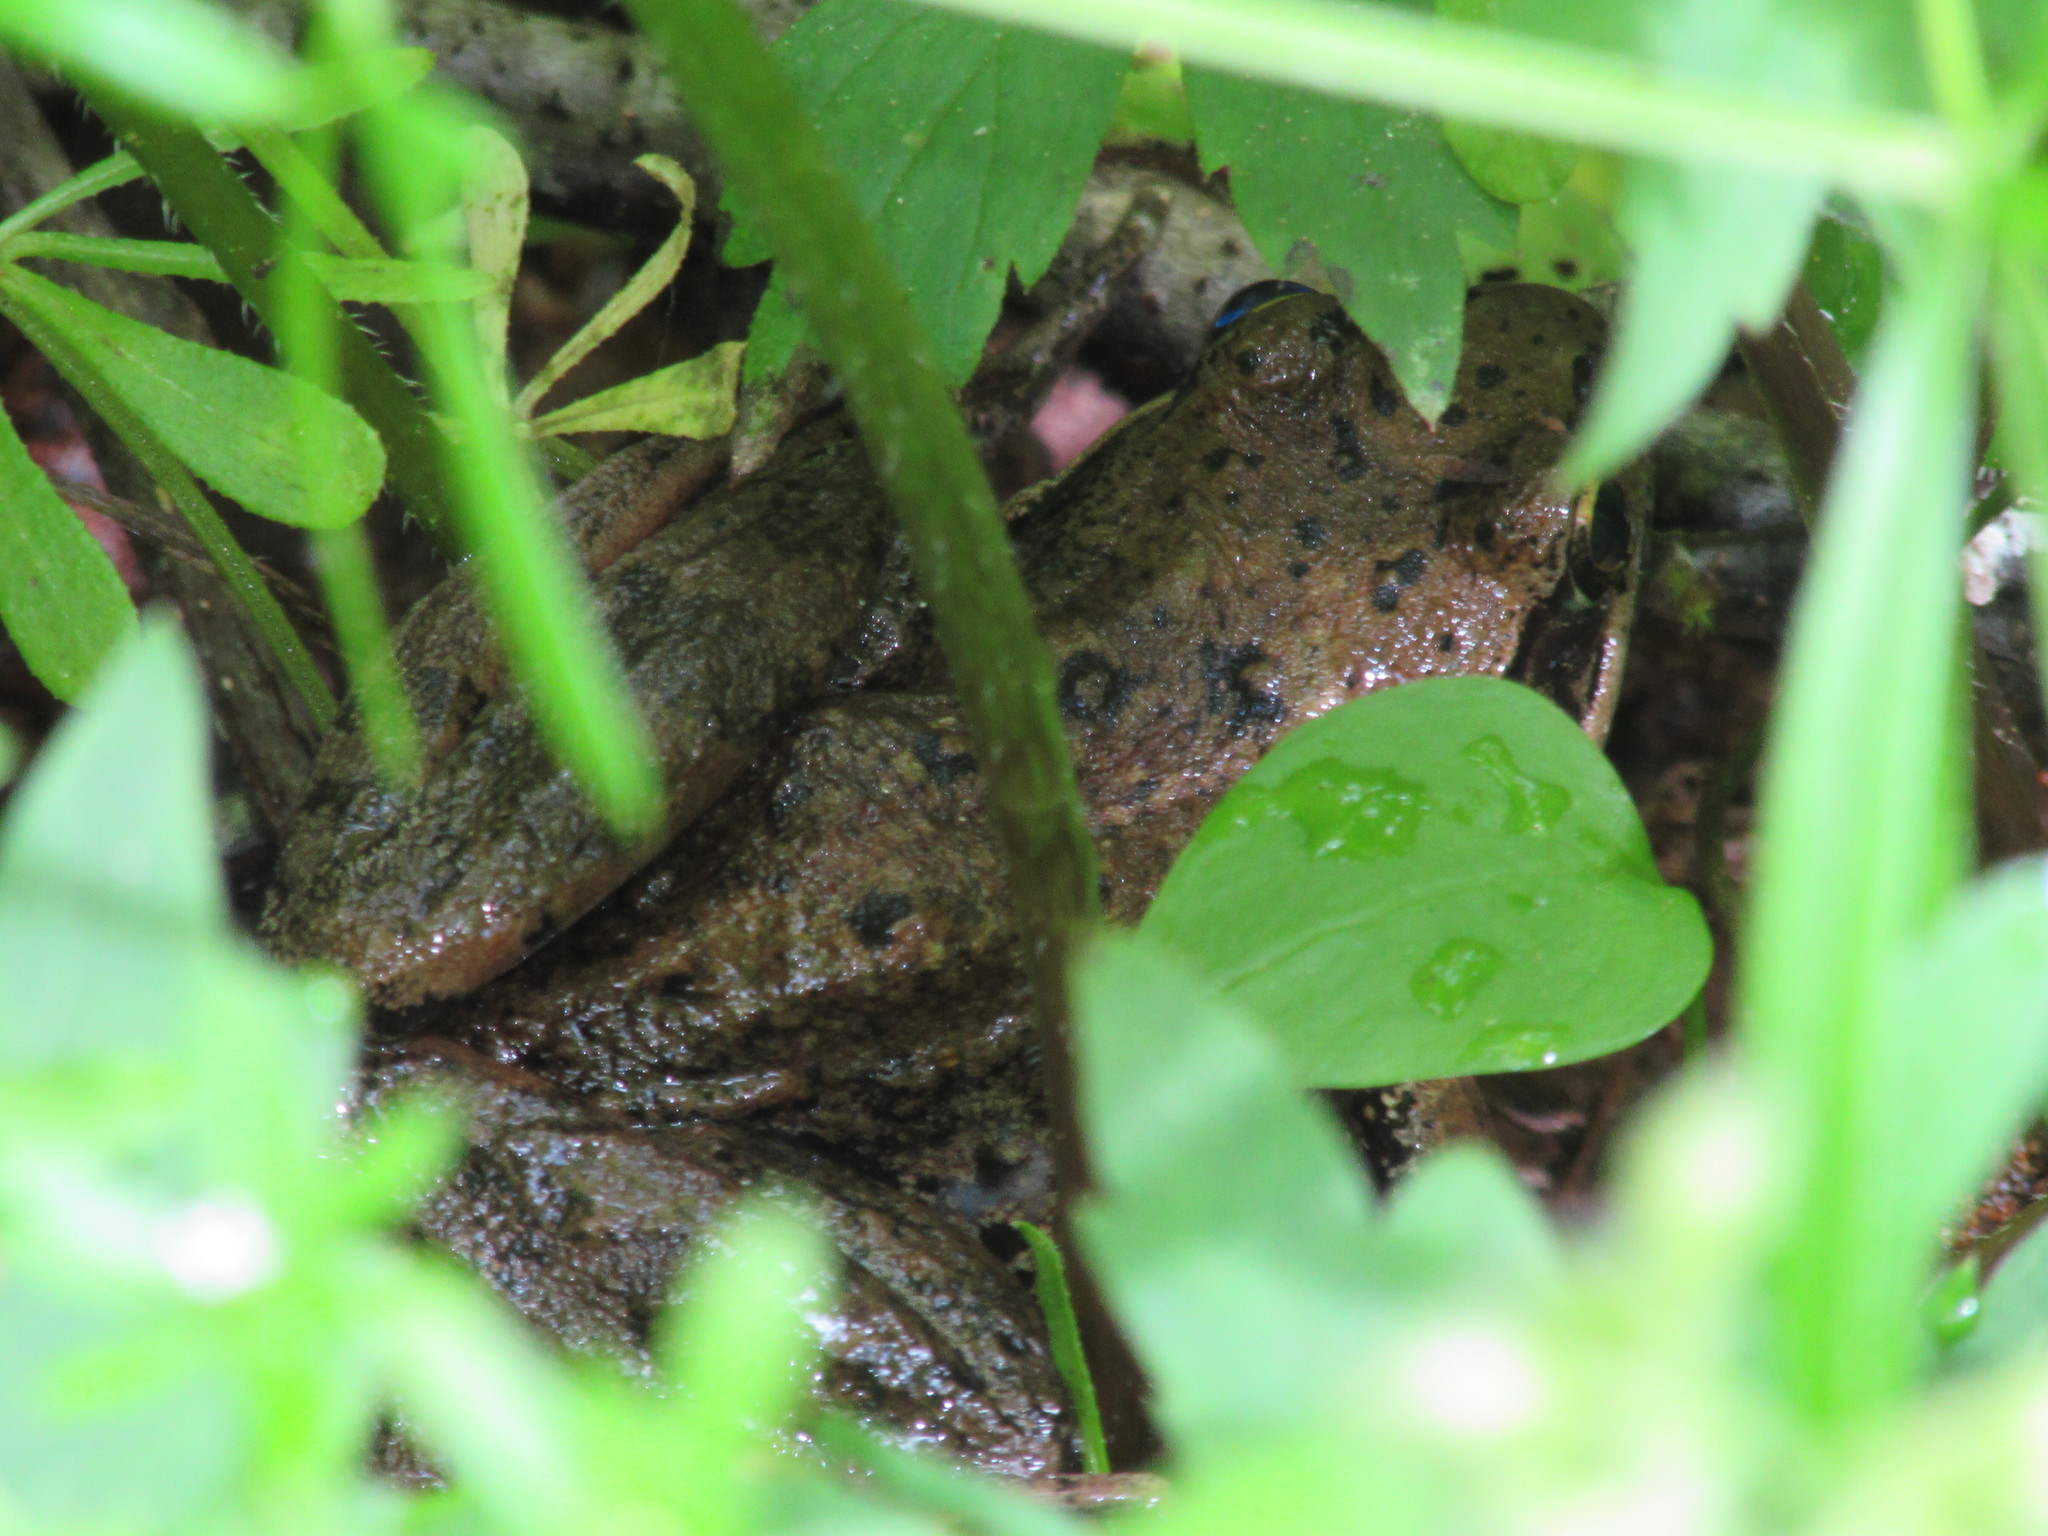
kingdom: Animalia
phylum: Chordata
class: Amphibia
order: Anura
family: Ranidae
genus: Rana
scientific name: Rana aurora
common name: Red-legged frog
